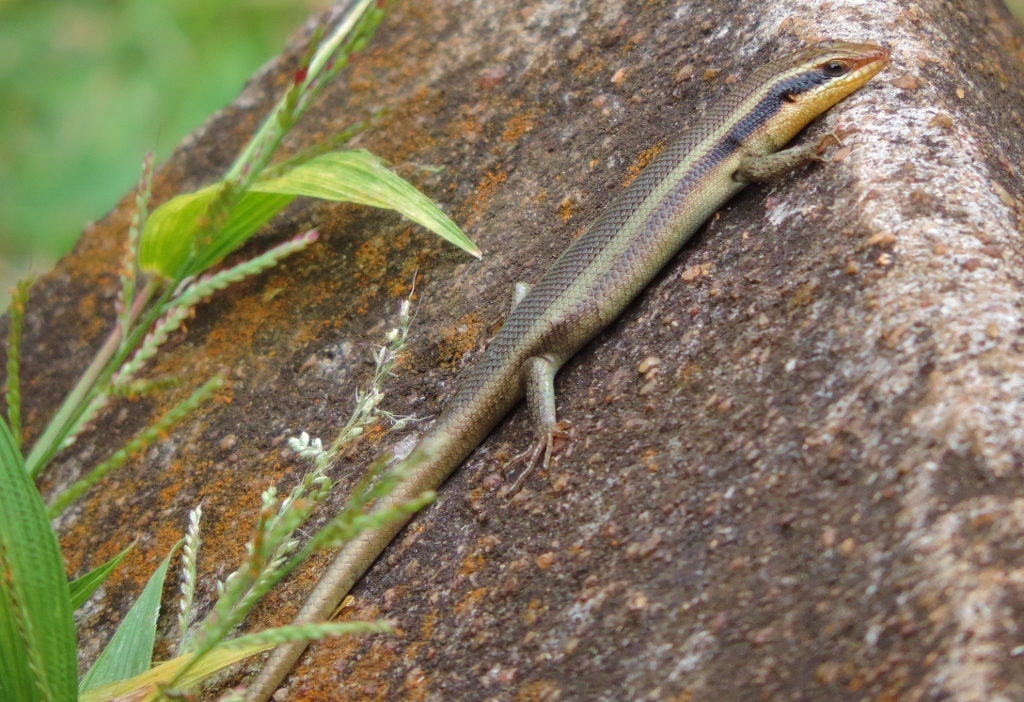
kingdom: Animalia
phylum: Chordata
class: Squamata
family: Scincidae
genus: Trachylepis
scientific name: Trachylepis wahlbergii
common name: Wahlberg’s striped skink
